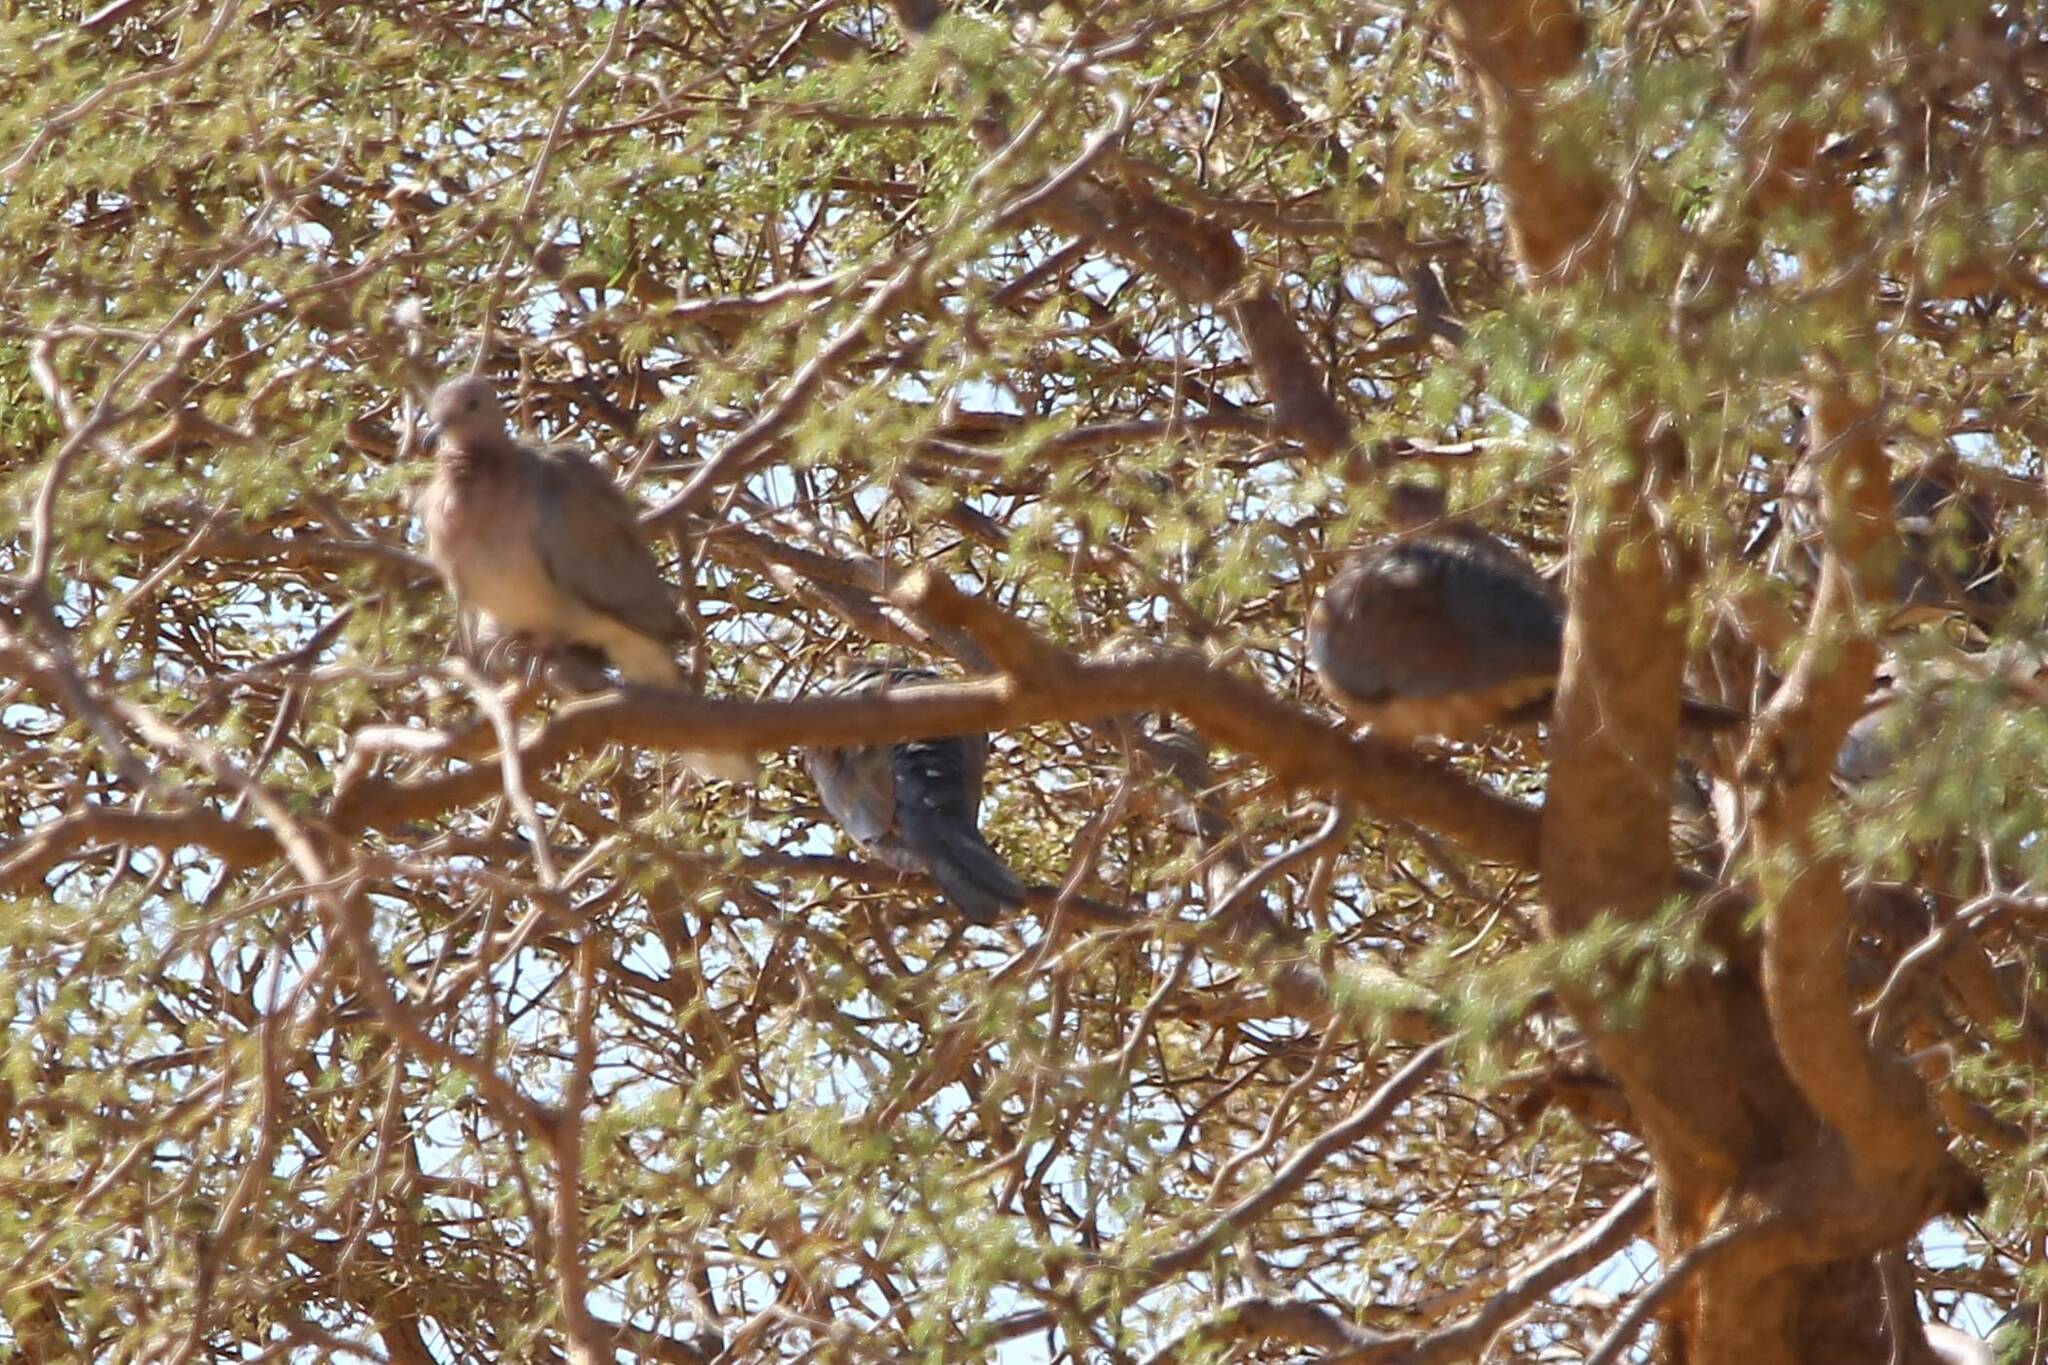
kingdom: Animalia
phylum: Chordata
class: Aves
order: Columbiformes
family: Columbidae
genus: Spilopelia
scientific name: Spilopelia senegalensis
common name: Laughing dove
